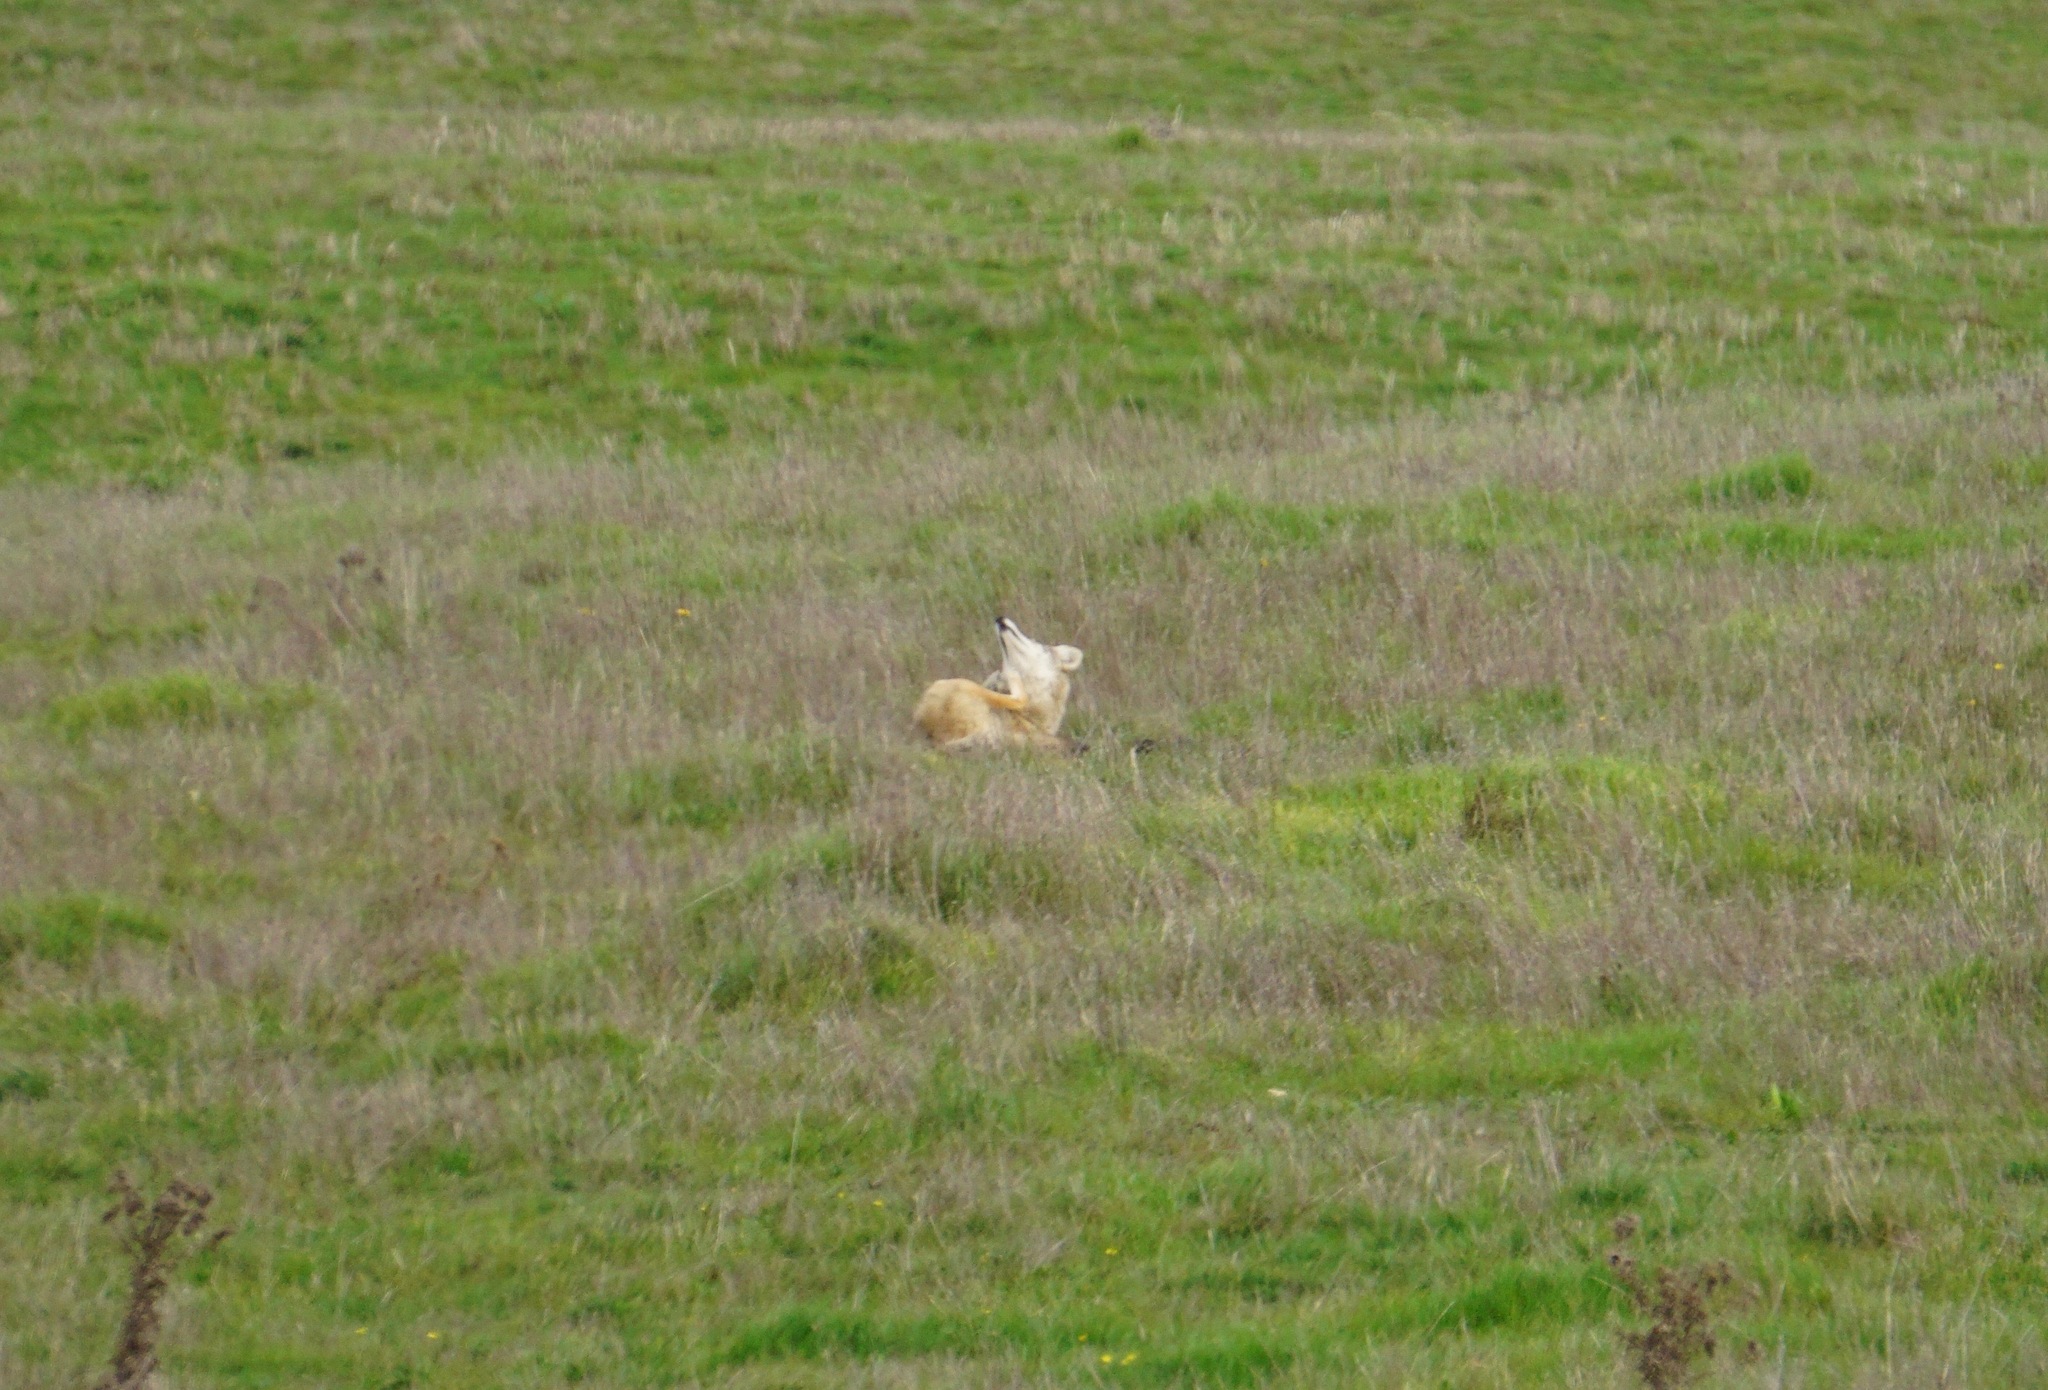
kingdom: Animalia
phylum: Chordata
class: Mammalia
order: Carnivora
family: Canidae
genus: Canis
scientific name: Canis latrans
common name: Coyote
